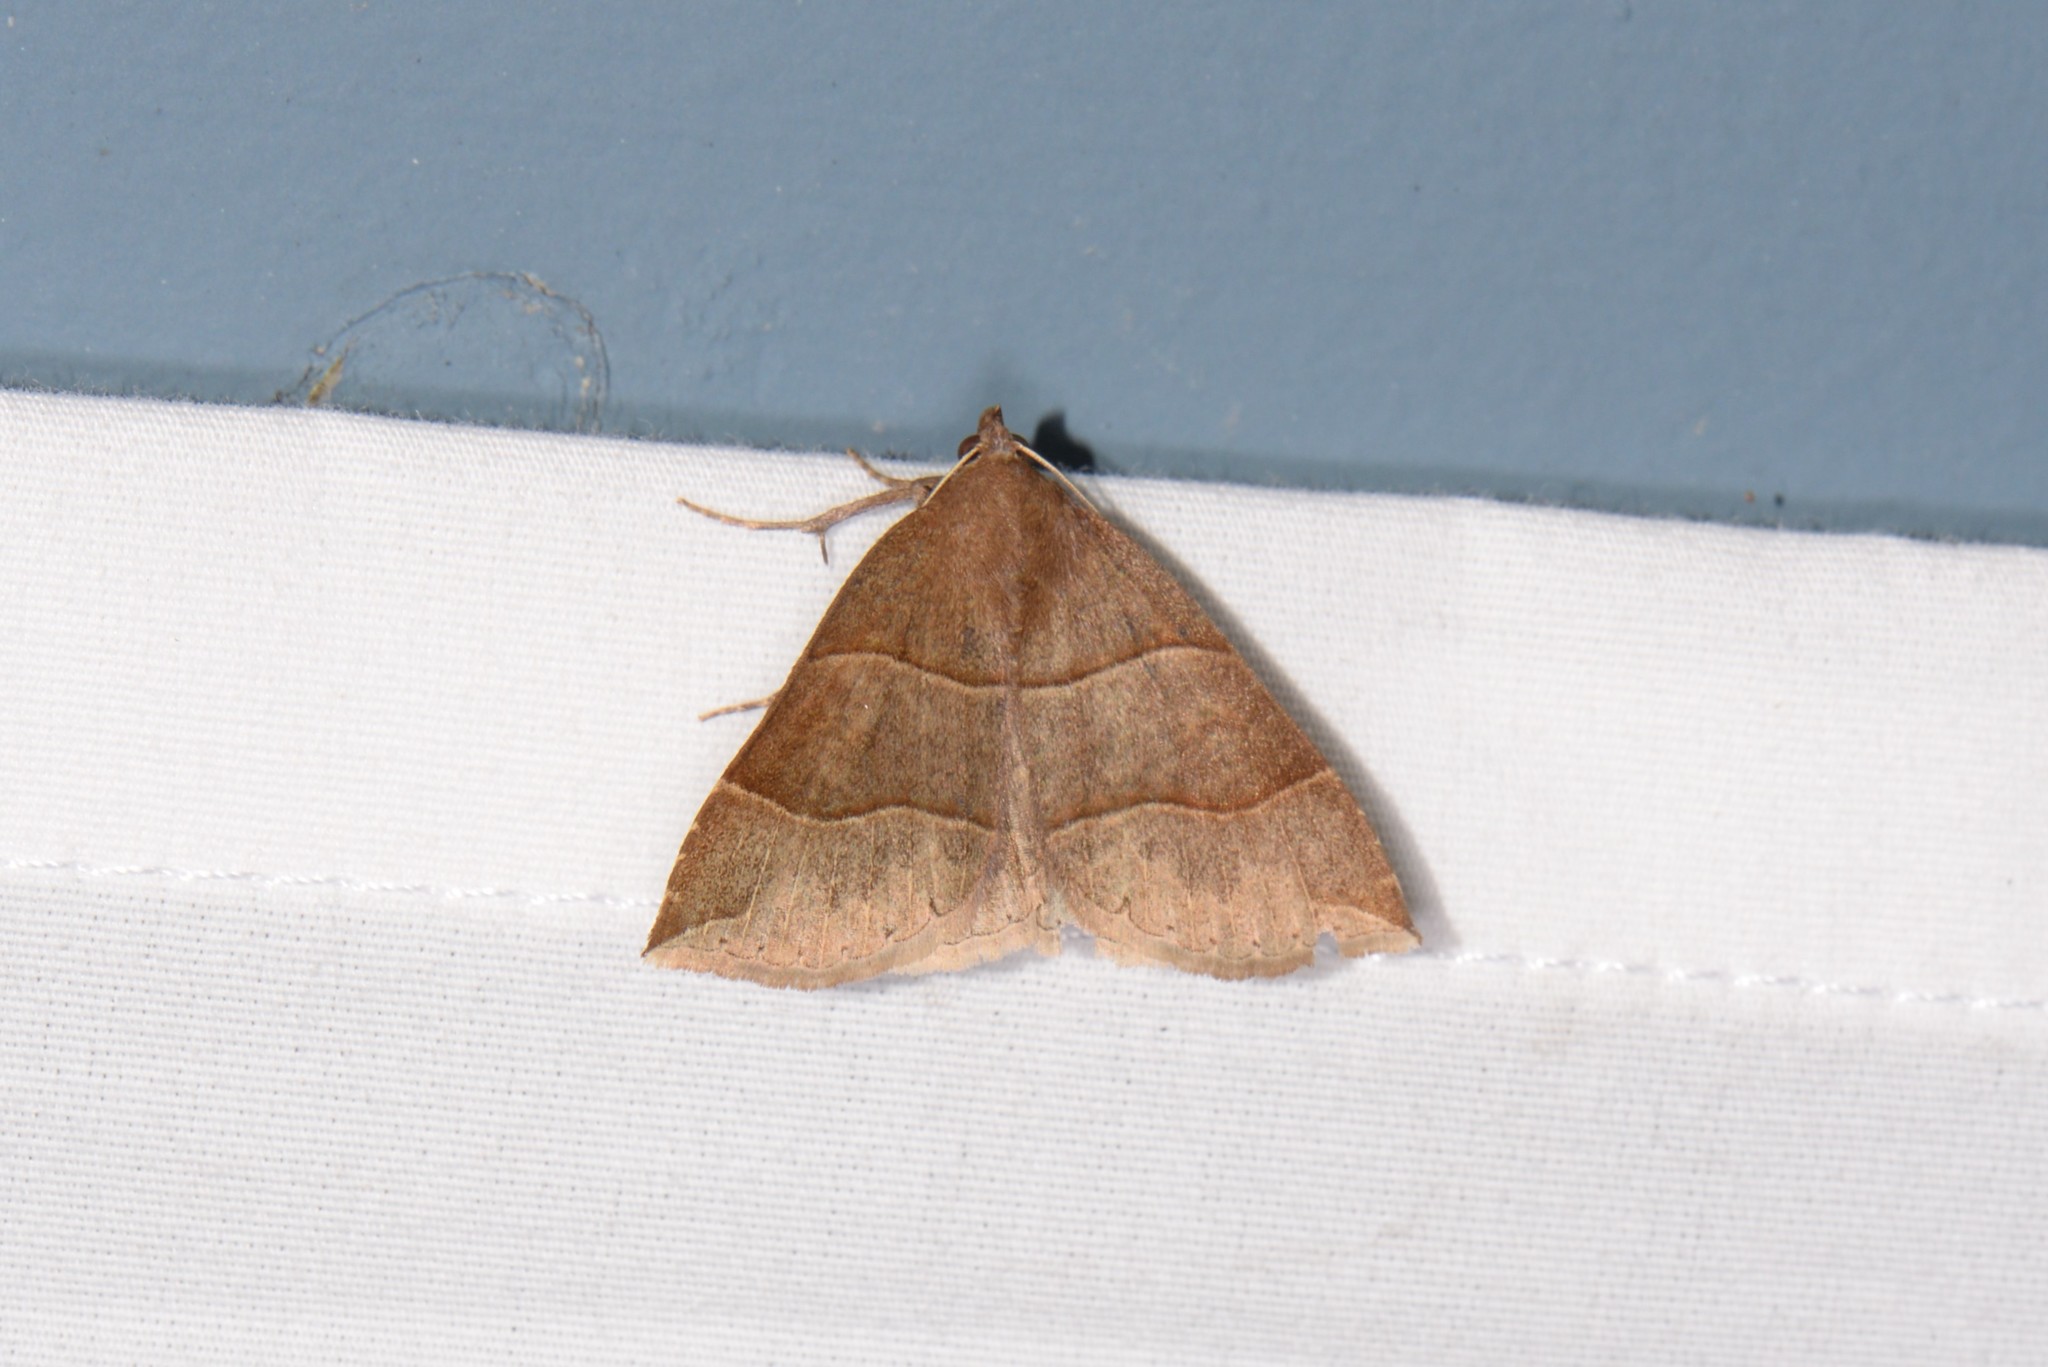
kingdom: Animalia
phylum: Arthropoda
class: Insecta
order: Lepidoptera
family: Erebidae
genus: Parallelia
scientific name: Parallelia bistriaris
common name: Maple looper moth
